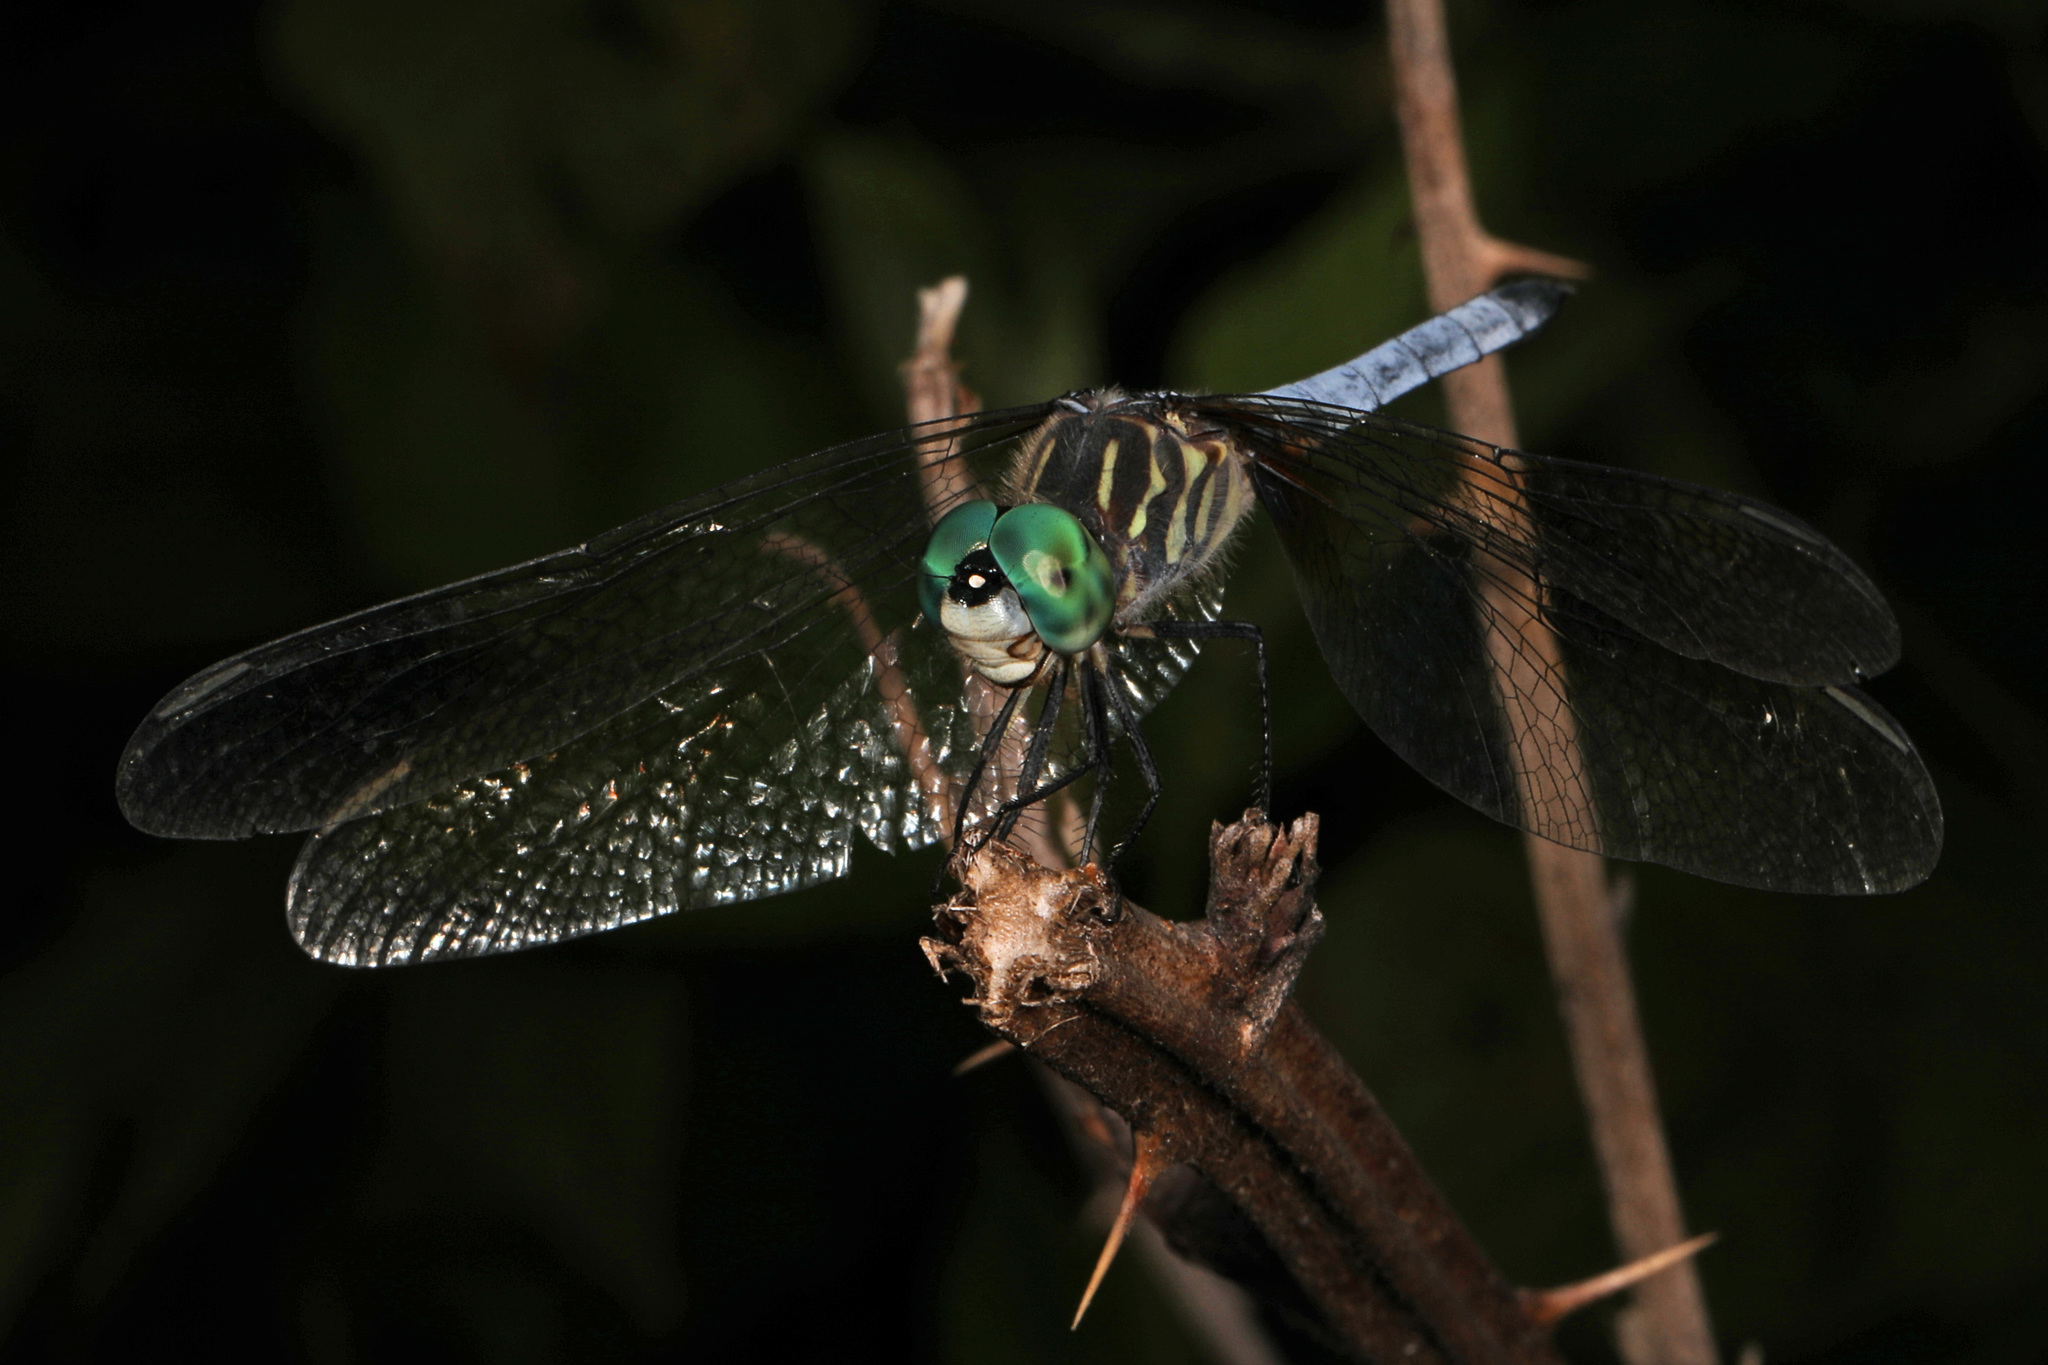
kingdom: Animalia
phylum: Arthropoda
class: Insecta
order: Odonata
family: Libellulidae
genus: Pachydiplax
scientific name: Pachydiplax longipennis
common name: Blue dasher
